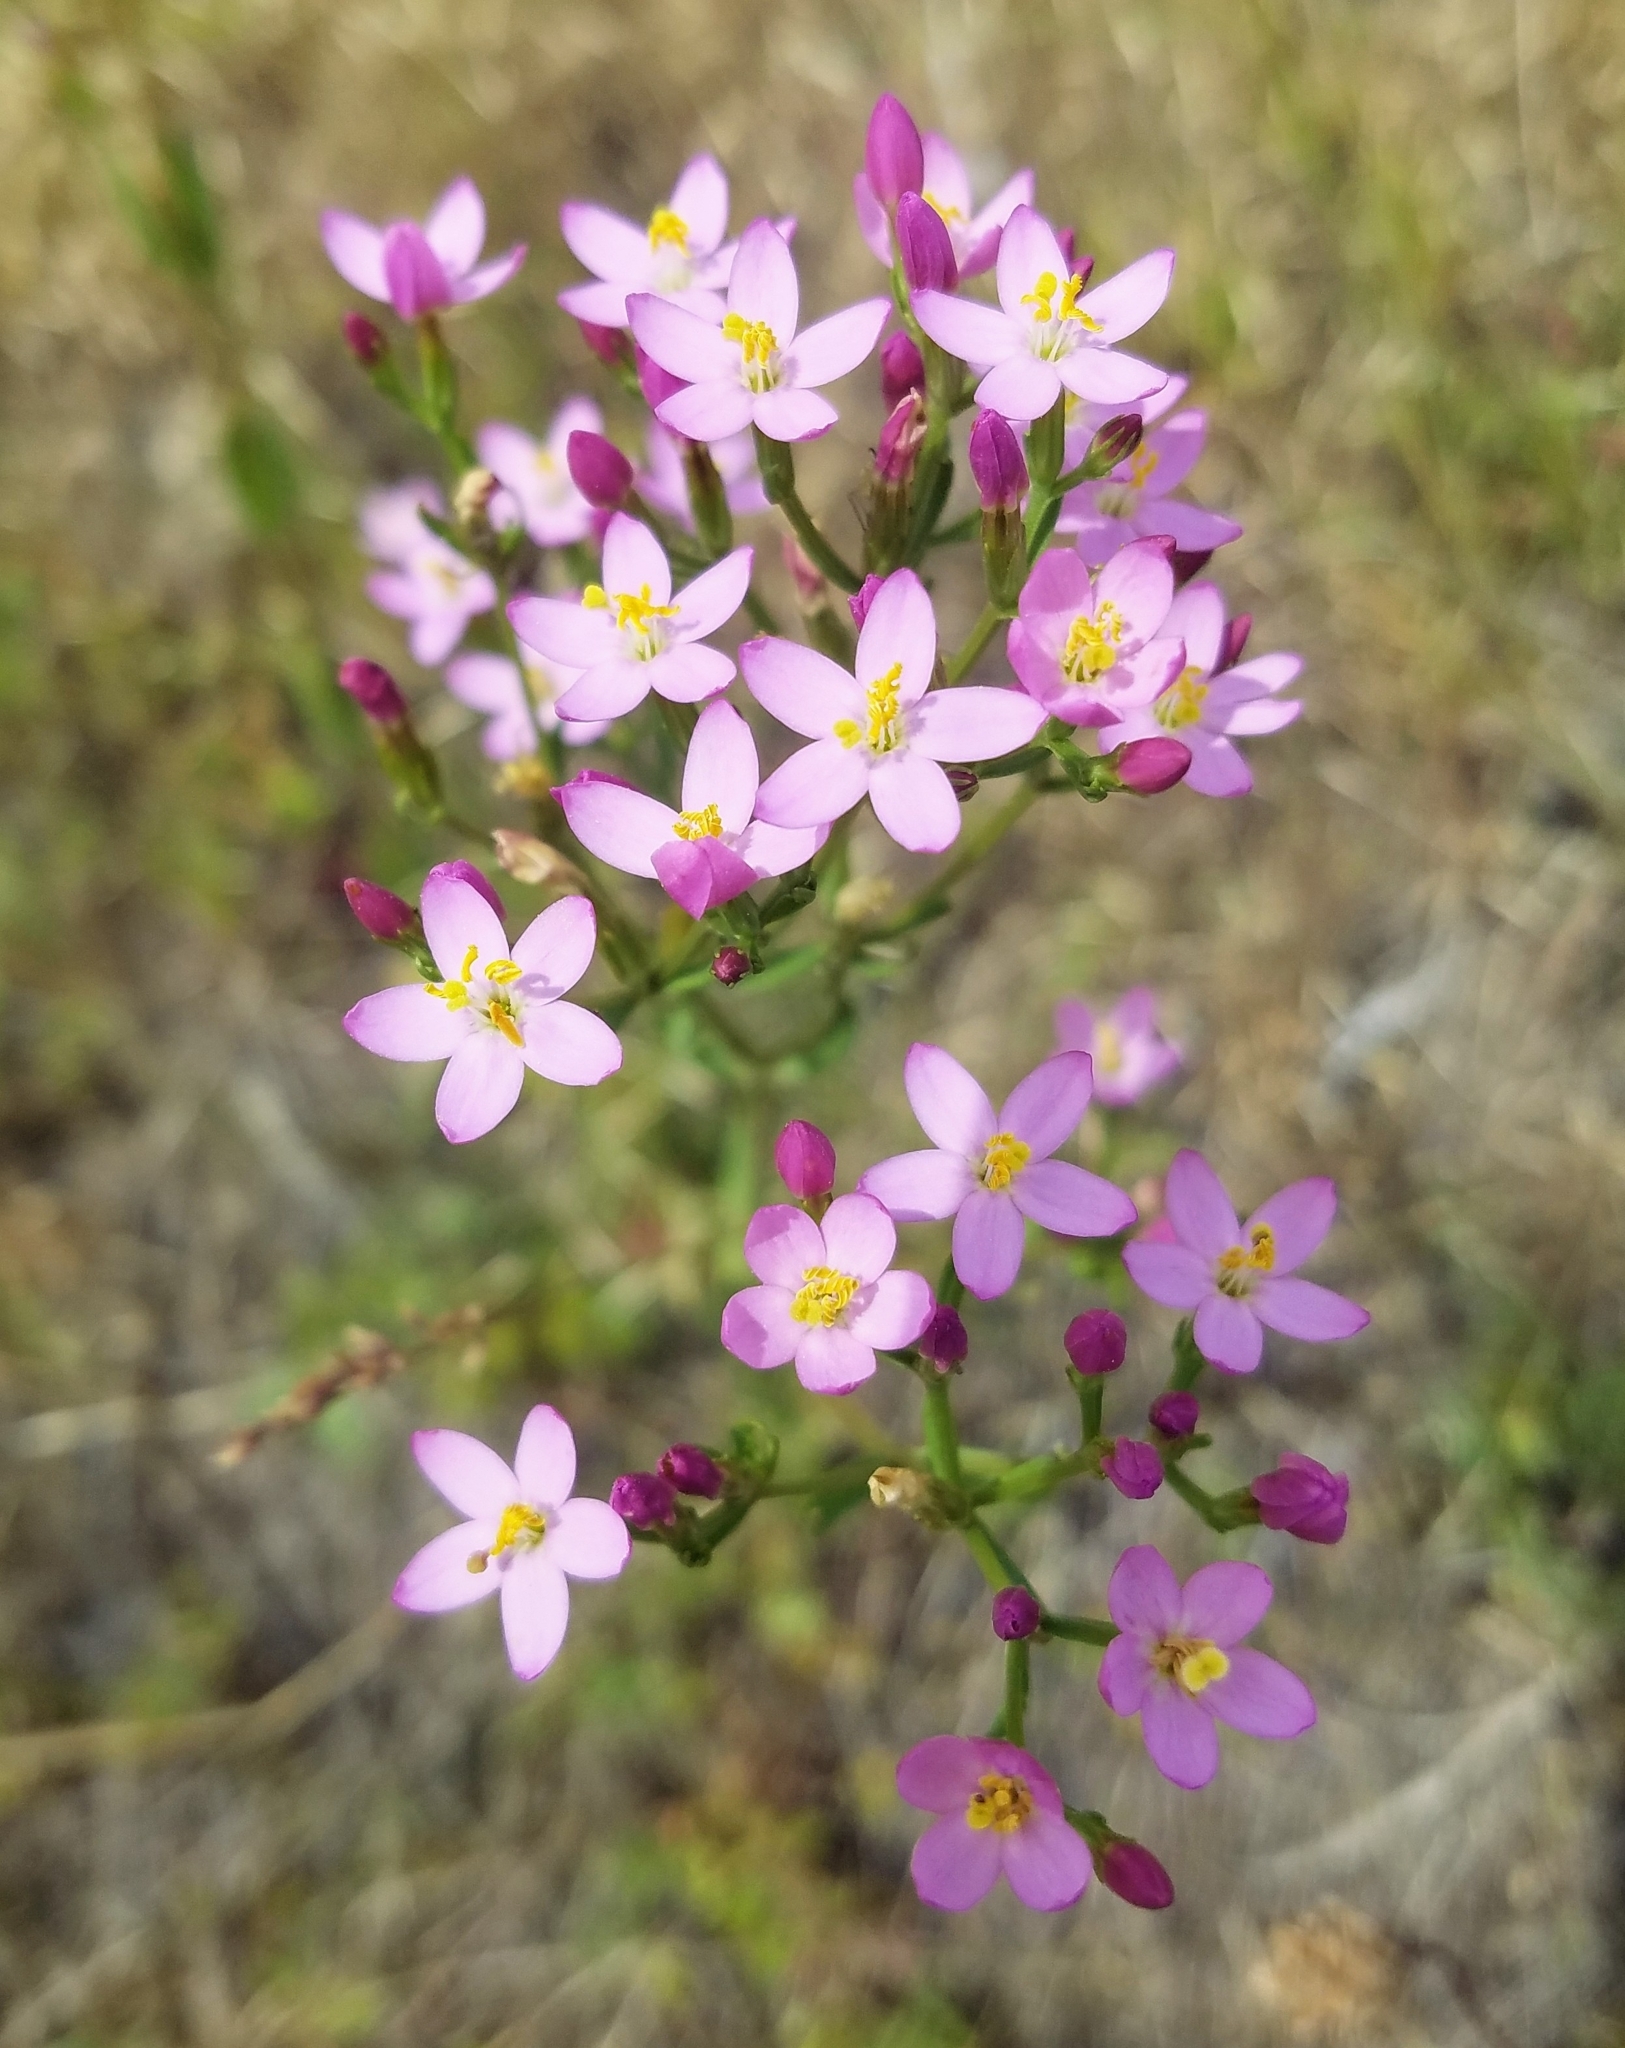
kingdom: Plantae
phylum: Tracheophyta
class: Magnoliopsida
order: Gentianales
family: Gentianaceae
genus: Centaurium
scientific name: Centaurium erythraea
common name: Common centaury
